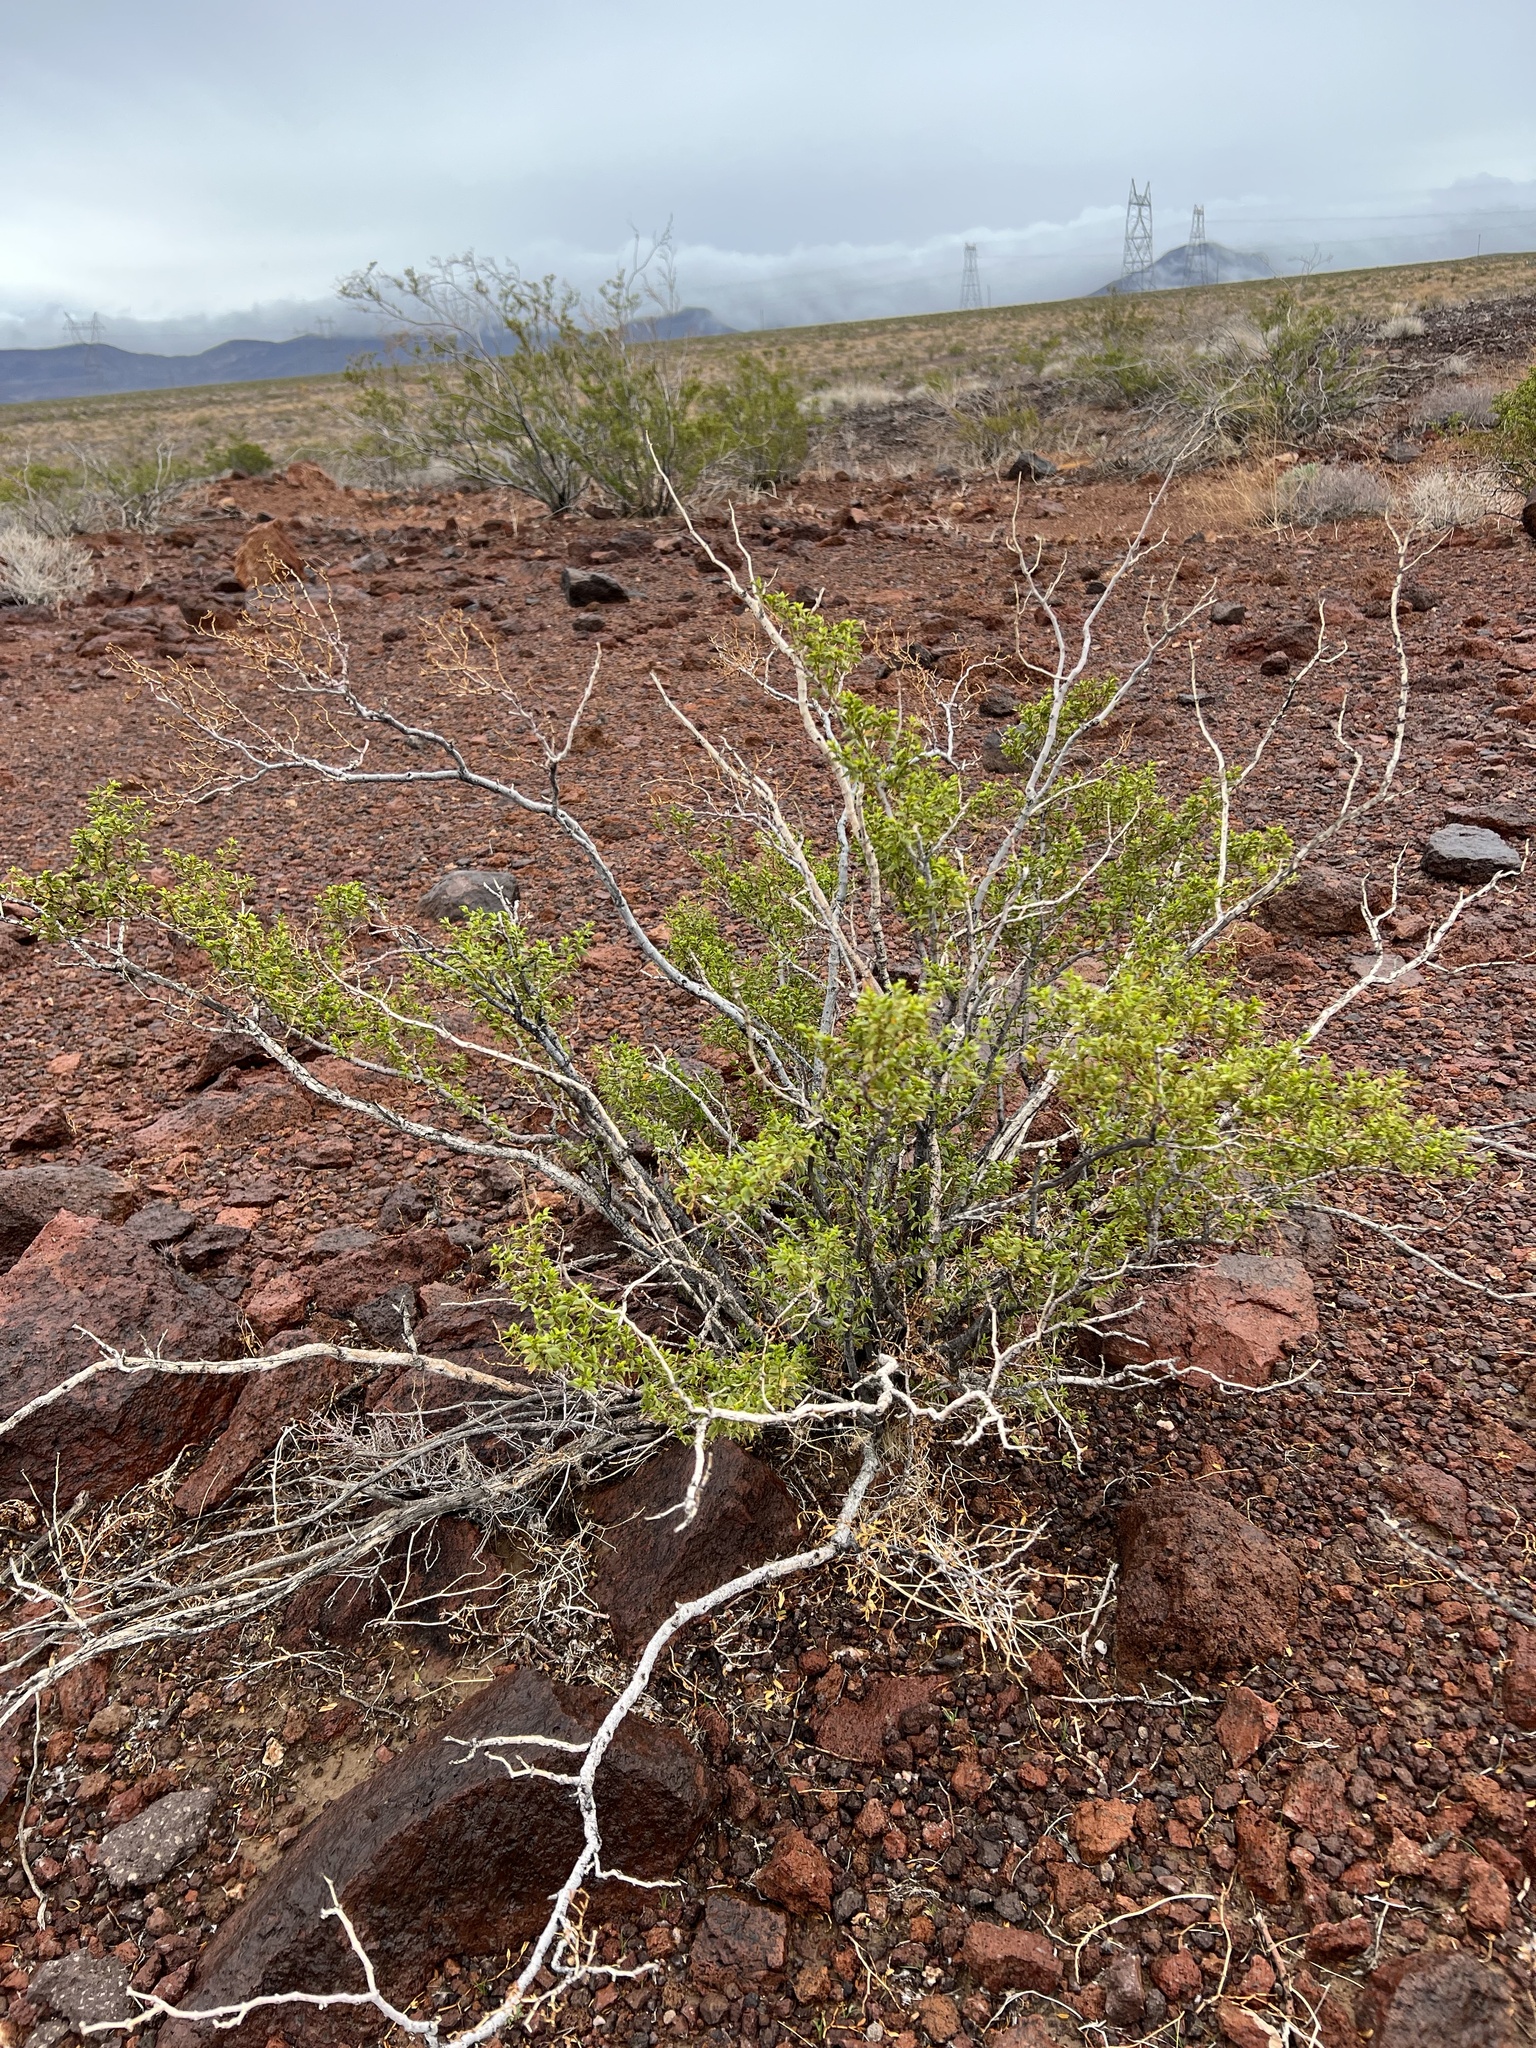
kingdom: Plantae
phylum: Tracheophyta
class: Magnoliopsida
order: Zygophyllales
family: Zygophyllaceae
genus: Larrea
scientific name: Larrea tridentata
